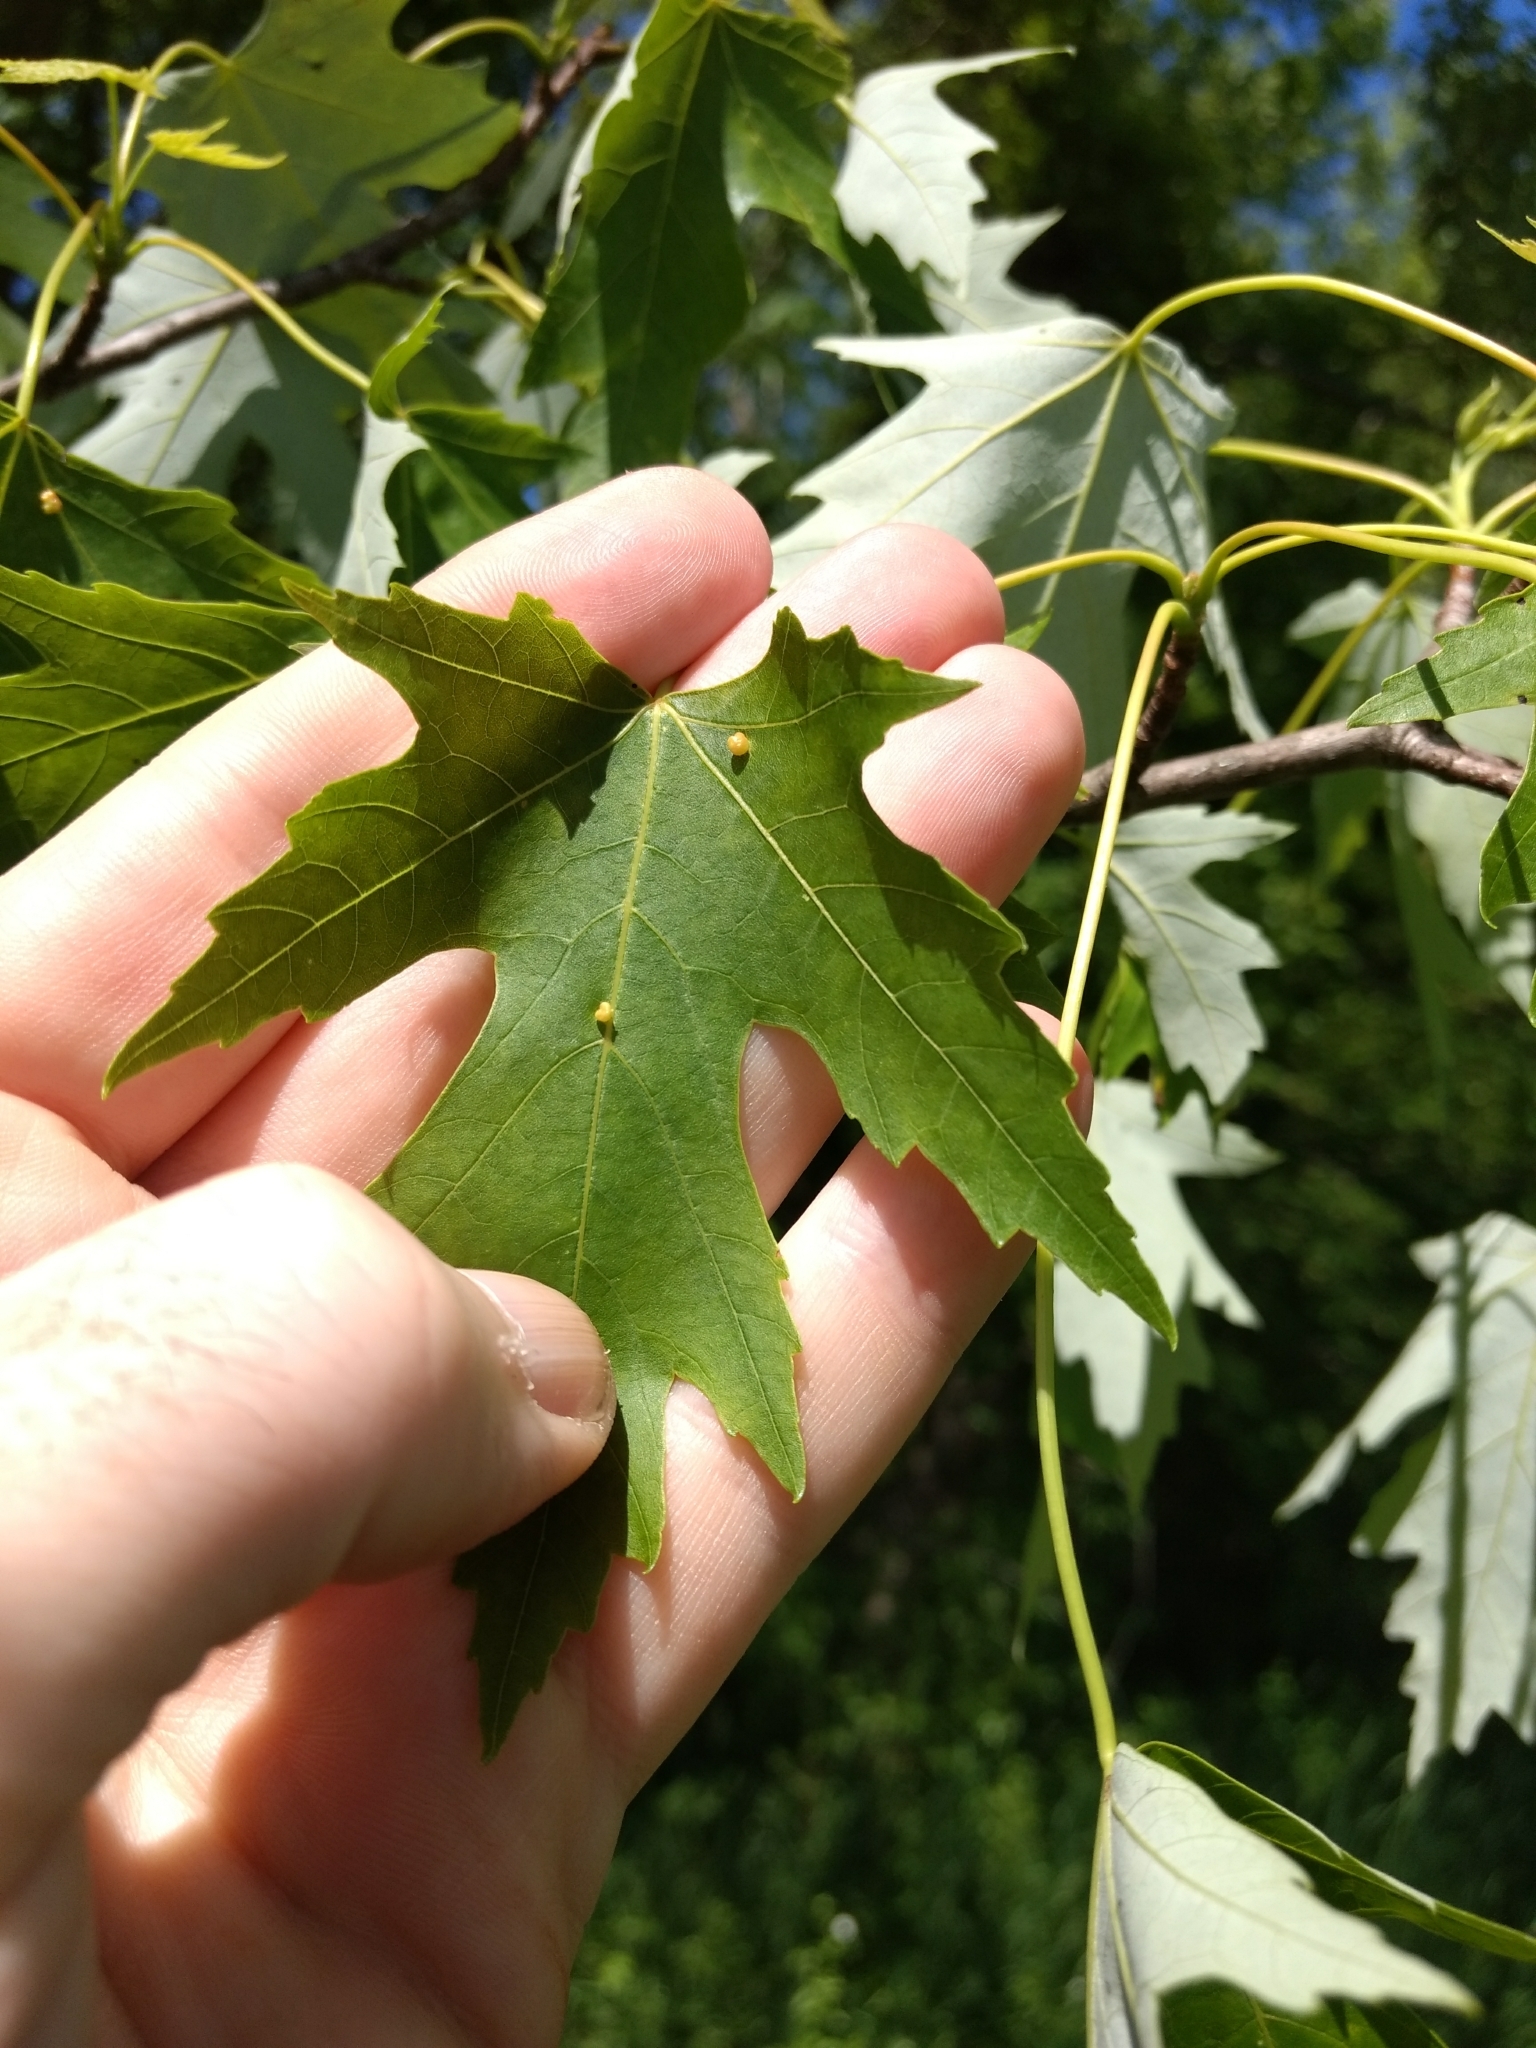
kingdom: Plantae
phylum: Tracheophyta
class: Magnoliopsida
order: Sapindales
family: Sapindaceae
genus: Acer
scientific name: Acer saccharinum
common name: Silver maple
